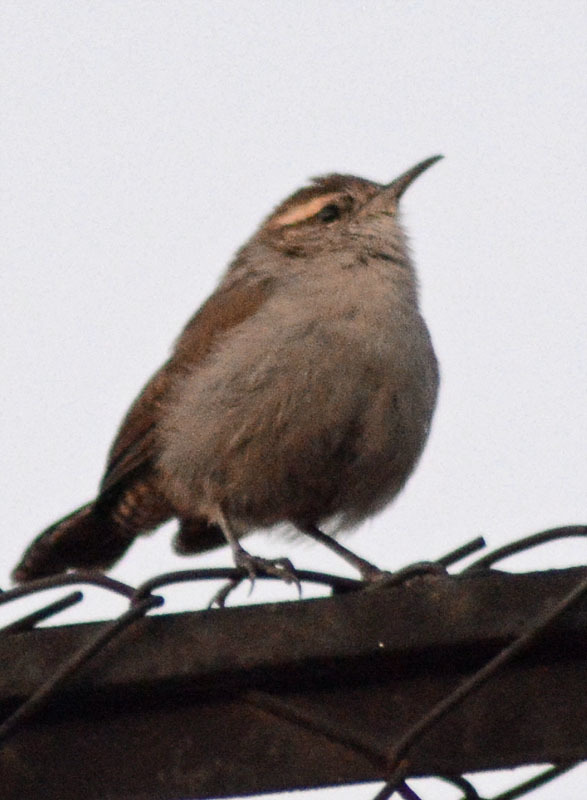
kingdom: Animalia
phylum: Chordata
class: Aves
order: Passeriformes
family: Troglodytidae
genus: Thryomanes
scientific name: Thryomanes bewickii
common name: Bewick's wren
